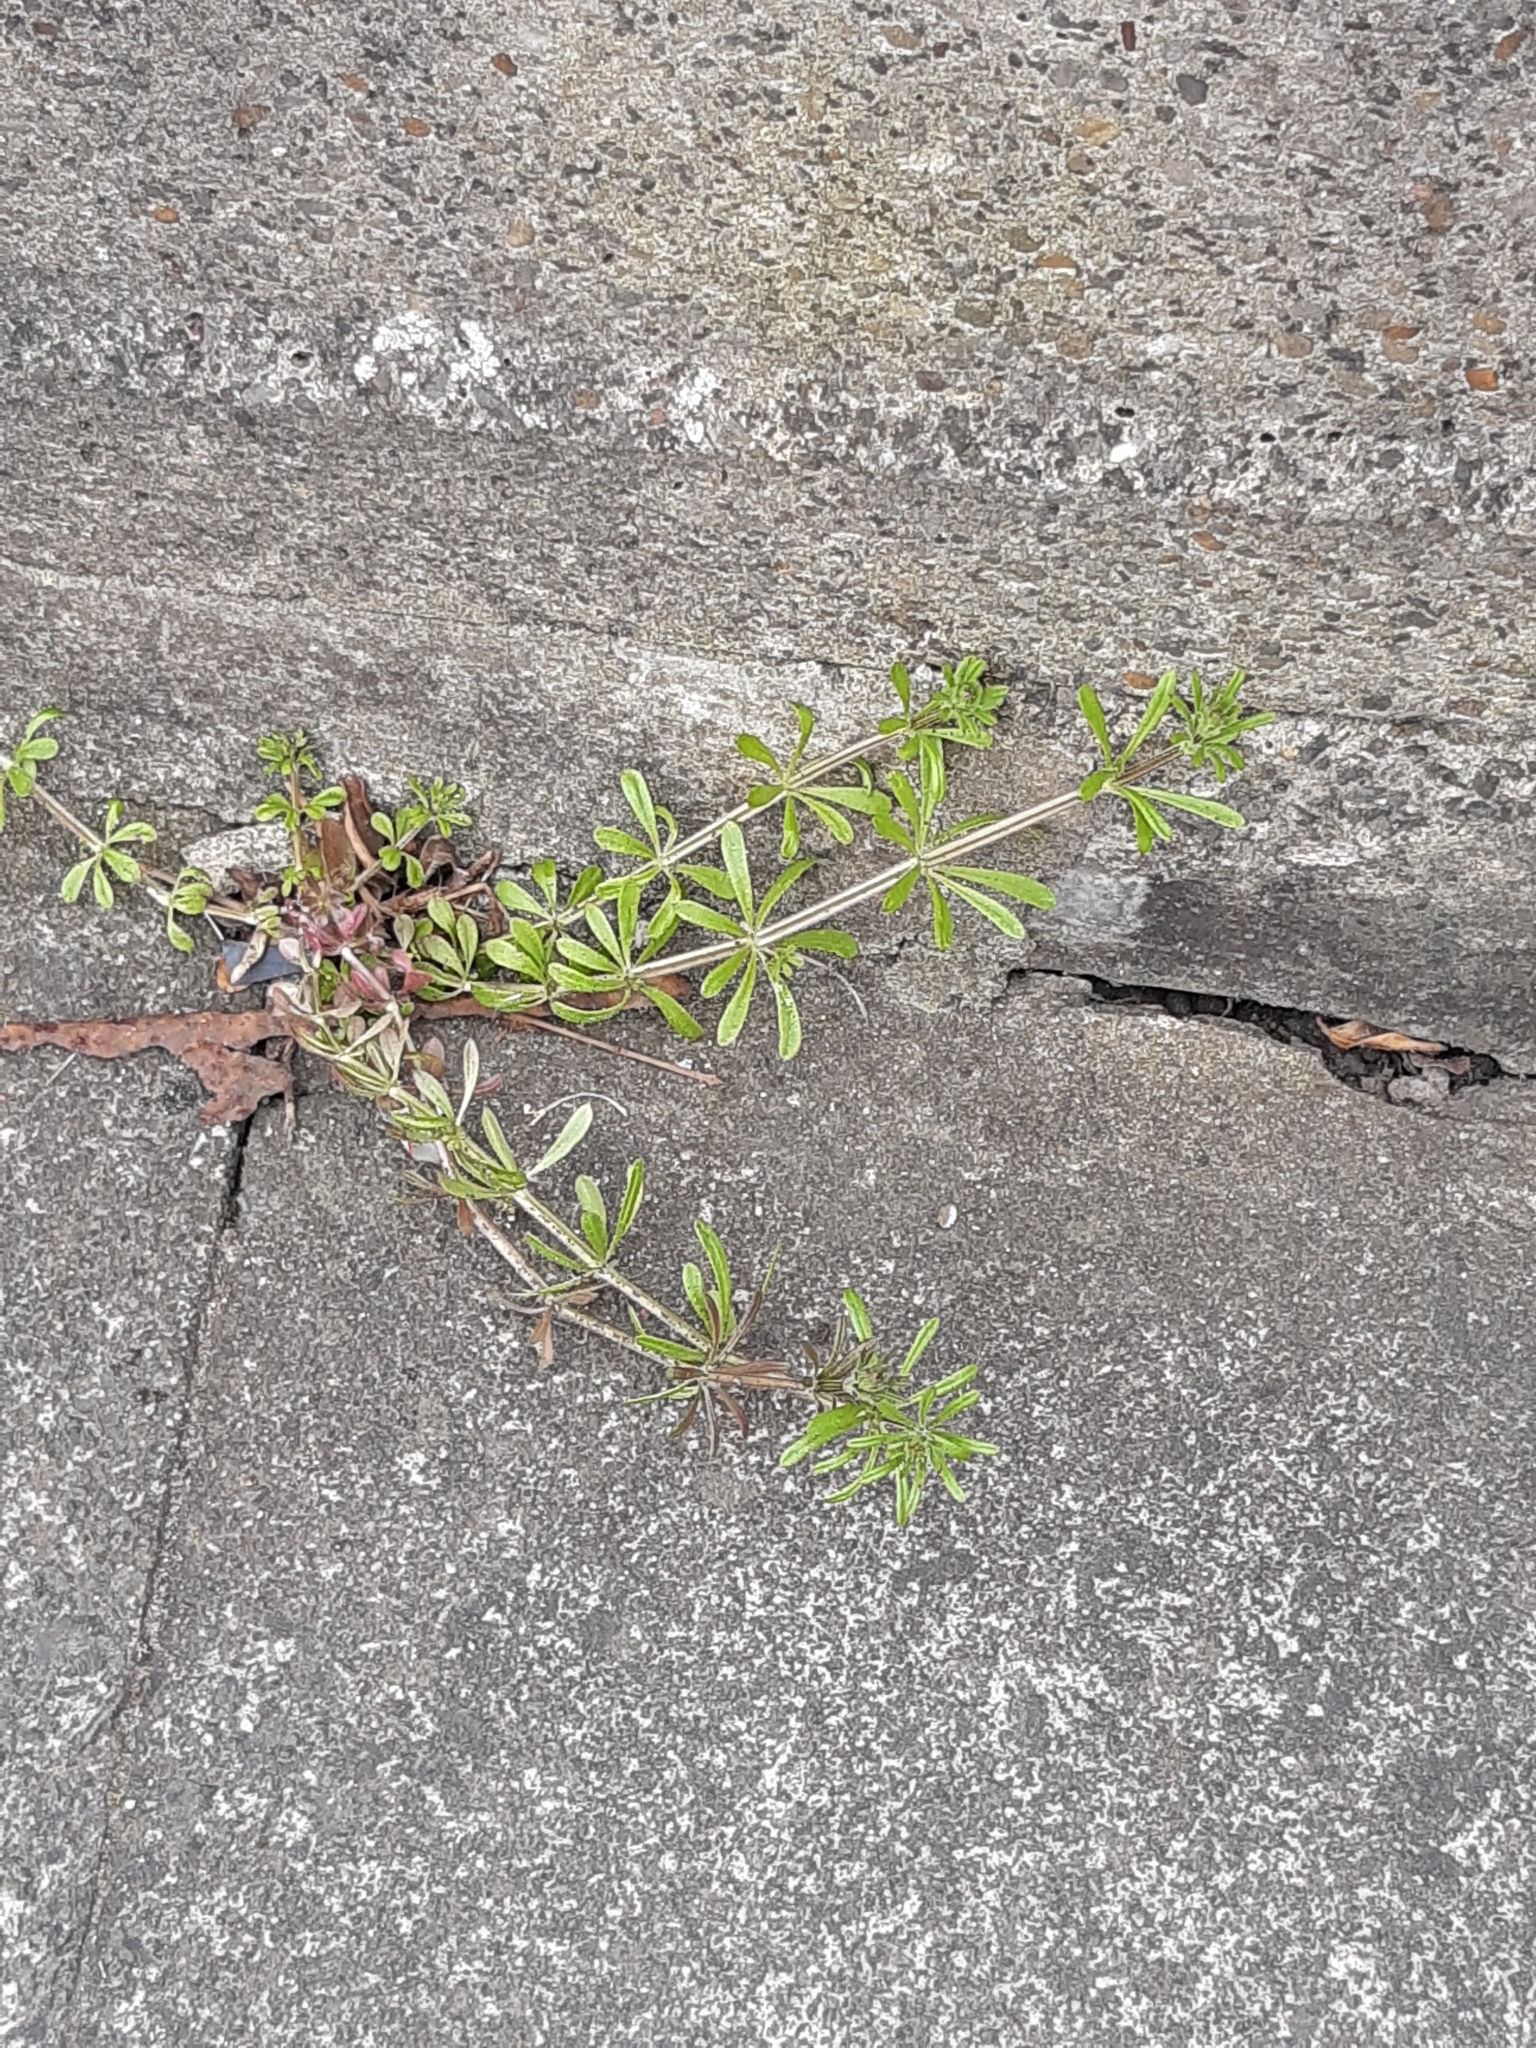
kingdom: Plantae
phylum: Tracheophyta
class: Magnoliopsida
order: Gentianales
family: Rubiaceae
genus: Galium
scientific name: Galium aparine
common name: Cleavers
